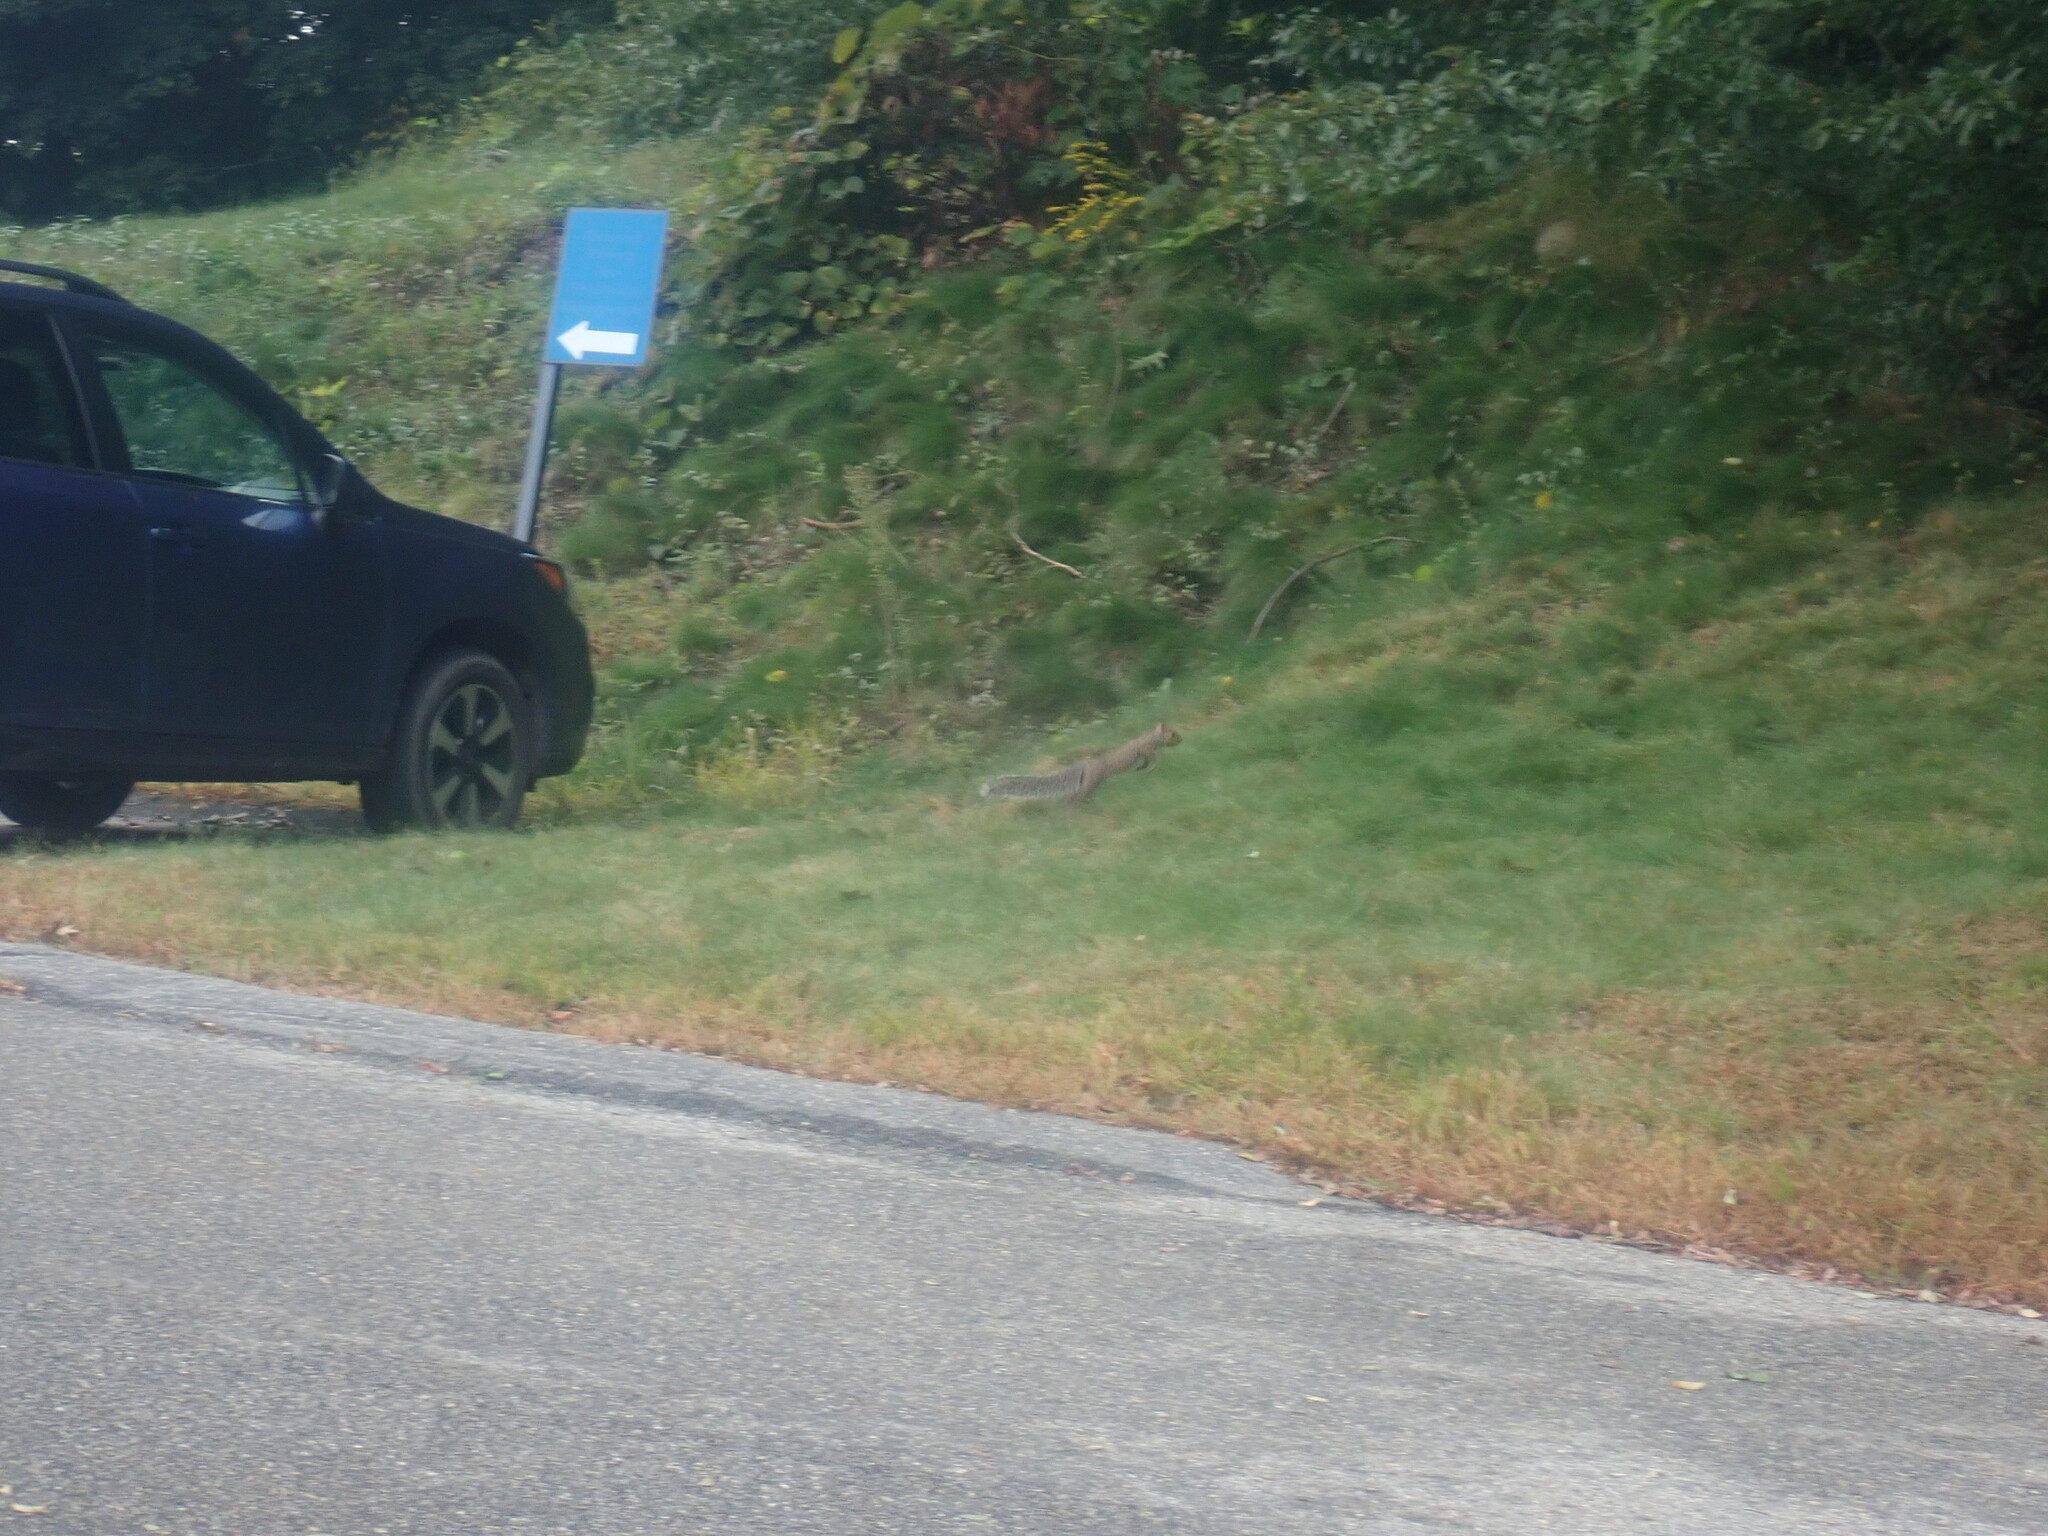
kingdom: Animalia
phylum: Chordata
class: Mammalia
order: Rodentia
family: Sciuridae
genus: Sciurus
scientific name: Sciurus carolinensis
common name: Eastern gray squirrel
